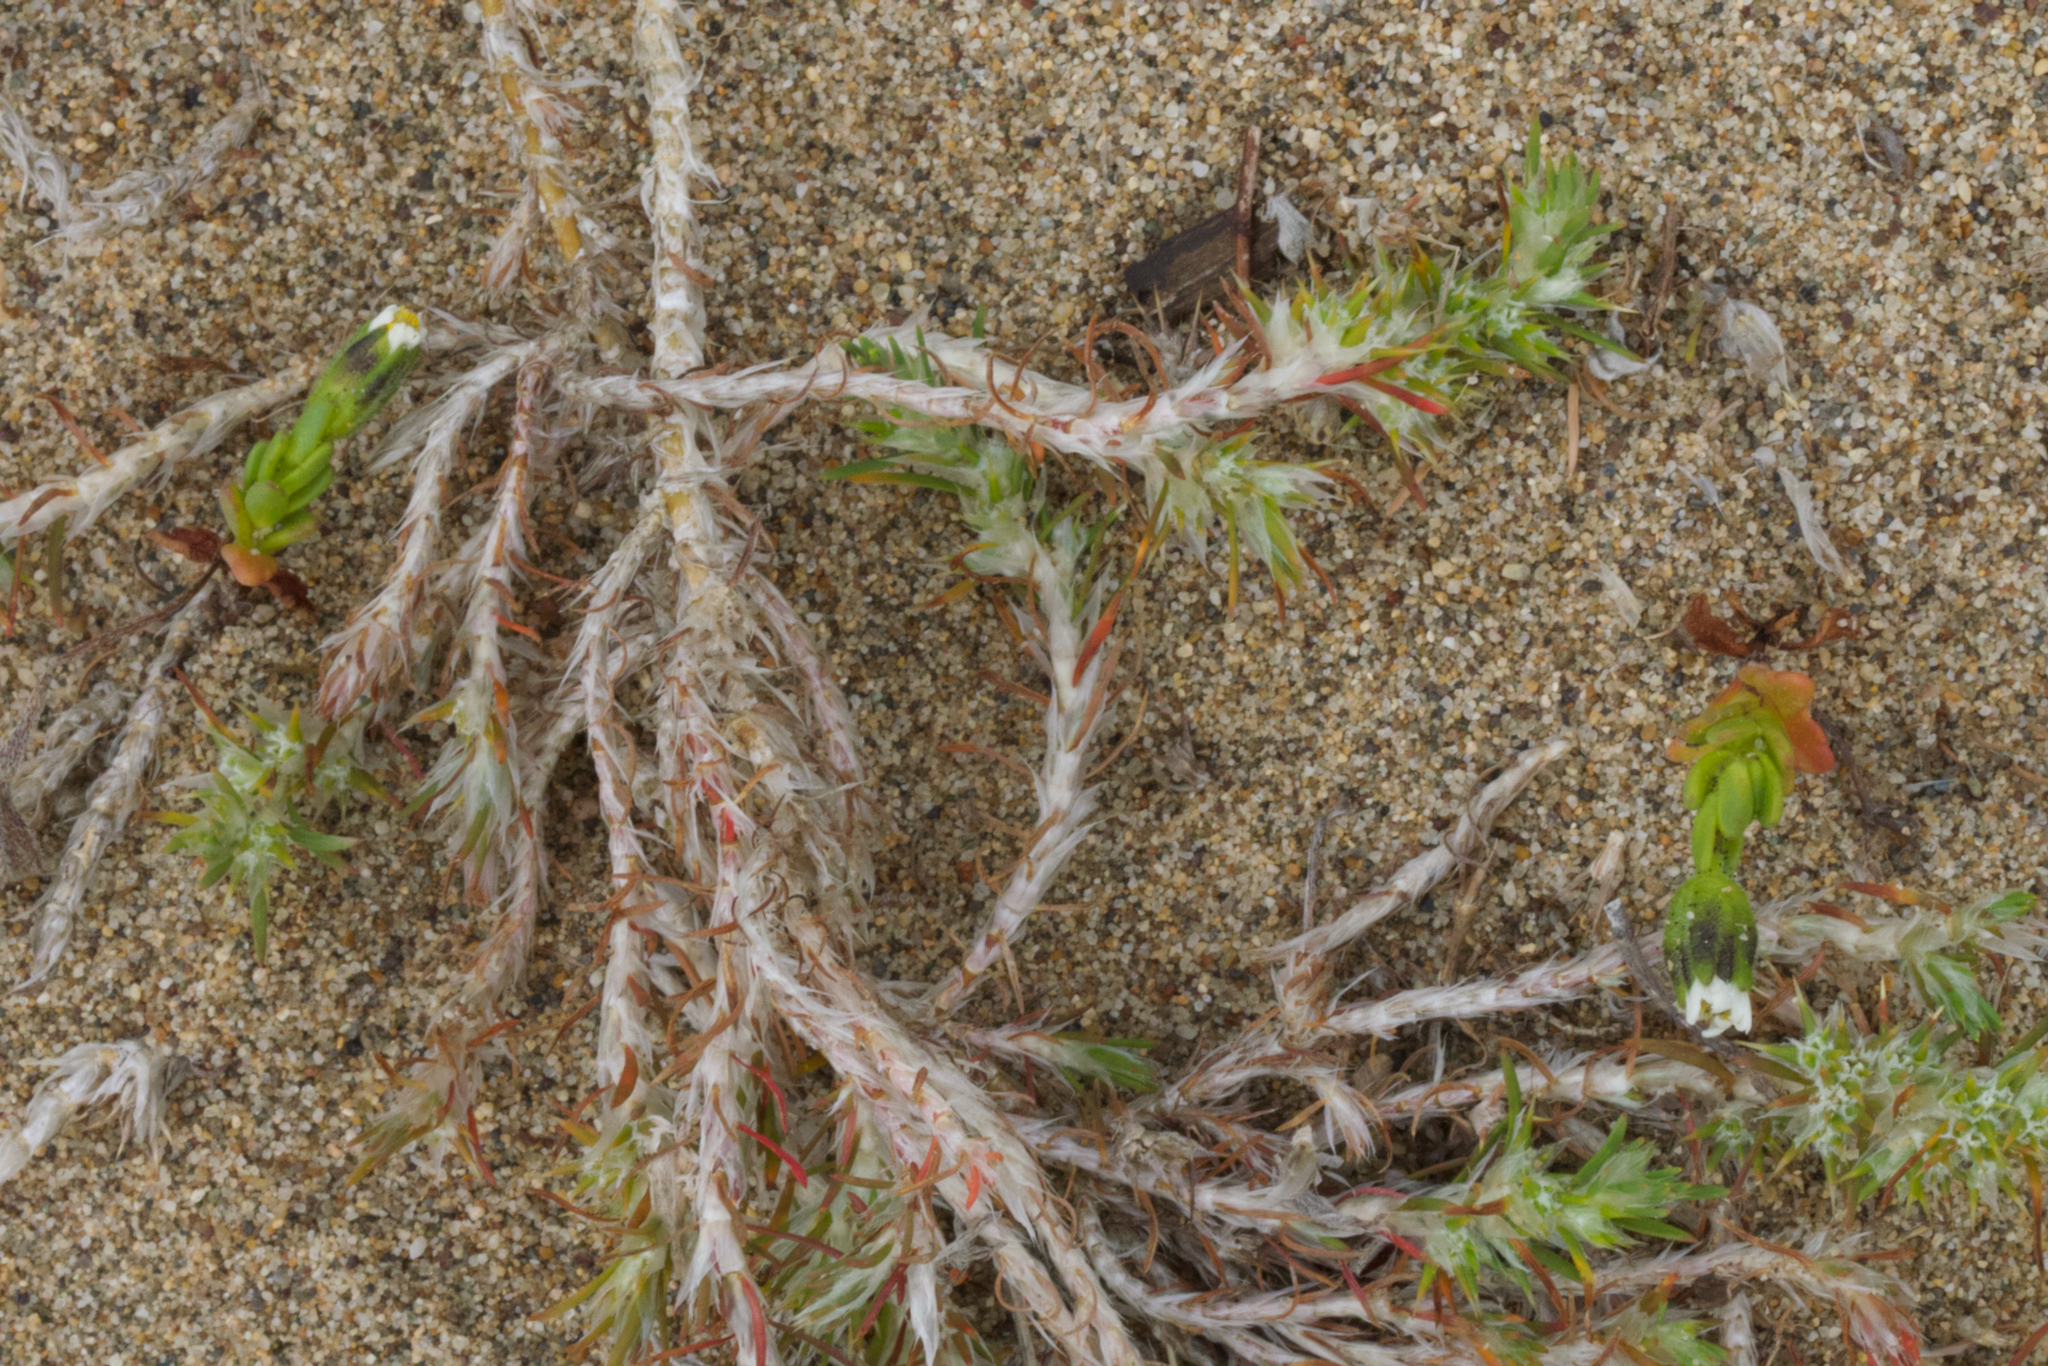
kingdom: Plantae
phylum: Tracheophyta
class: Magnoliopsida
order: Asterales
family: Asteraceae
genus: Layia
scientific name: Layia carnosa
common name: Beach layia
